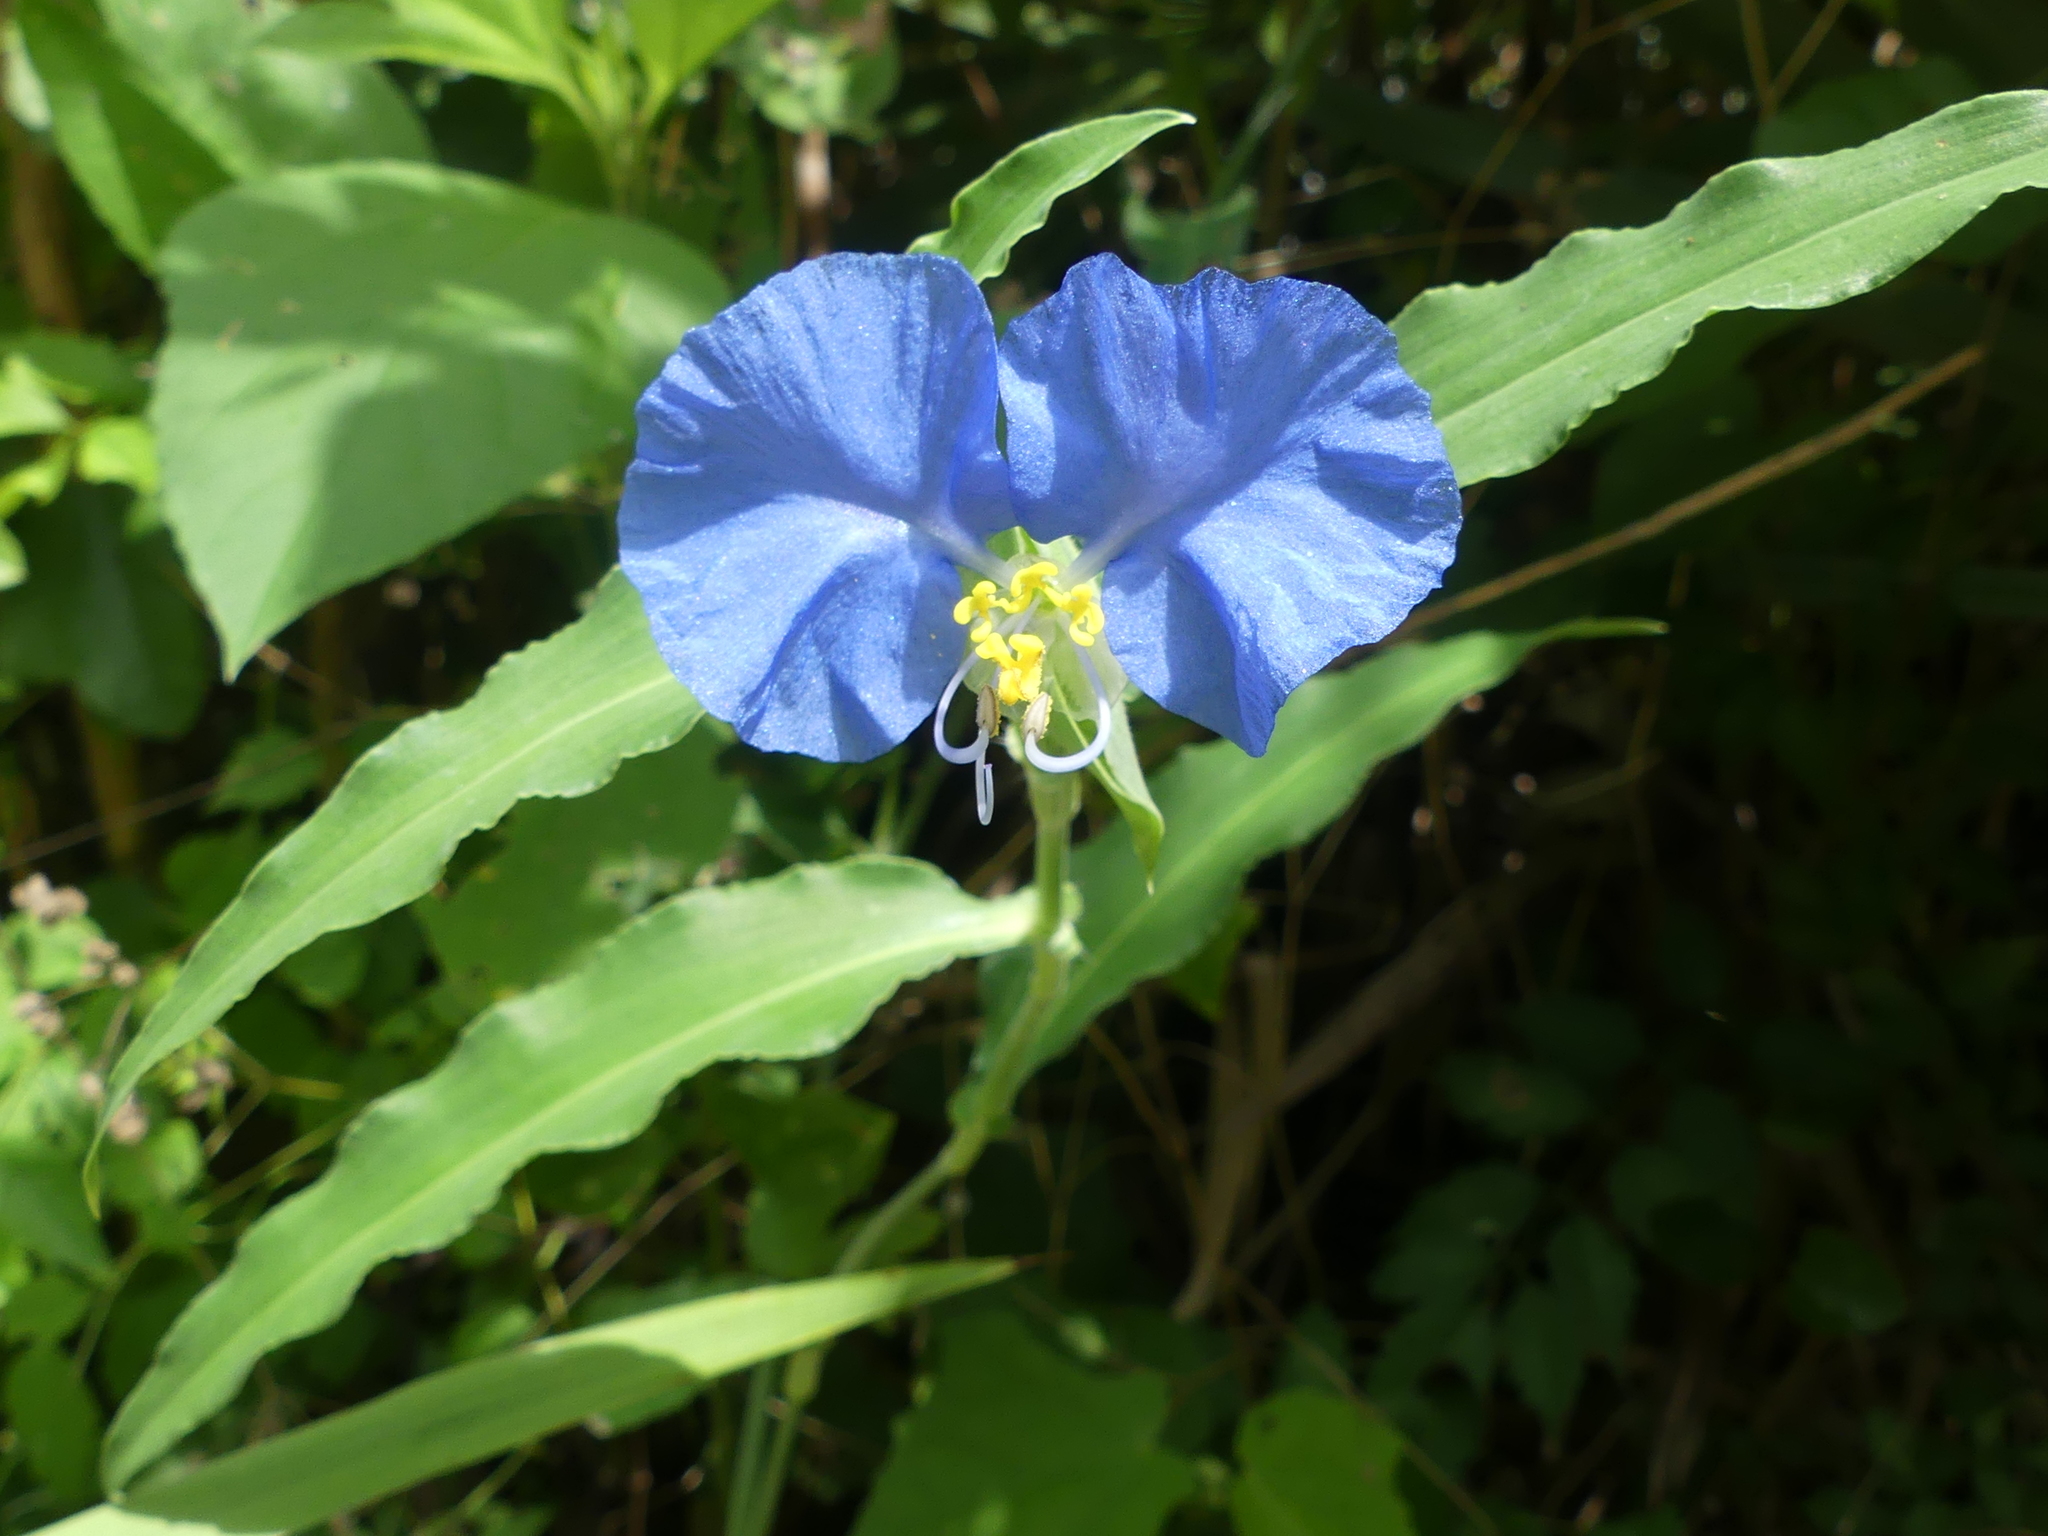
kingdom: Plantae
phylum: Tracheophyta
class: Liliopsida
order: Commelinales
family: Commelinaceae
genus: Commelina
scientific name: Commelina erecta
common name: Blousel blommetjie
